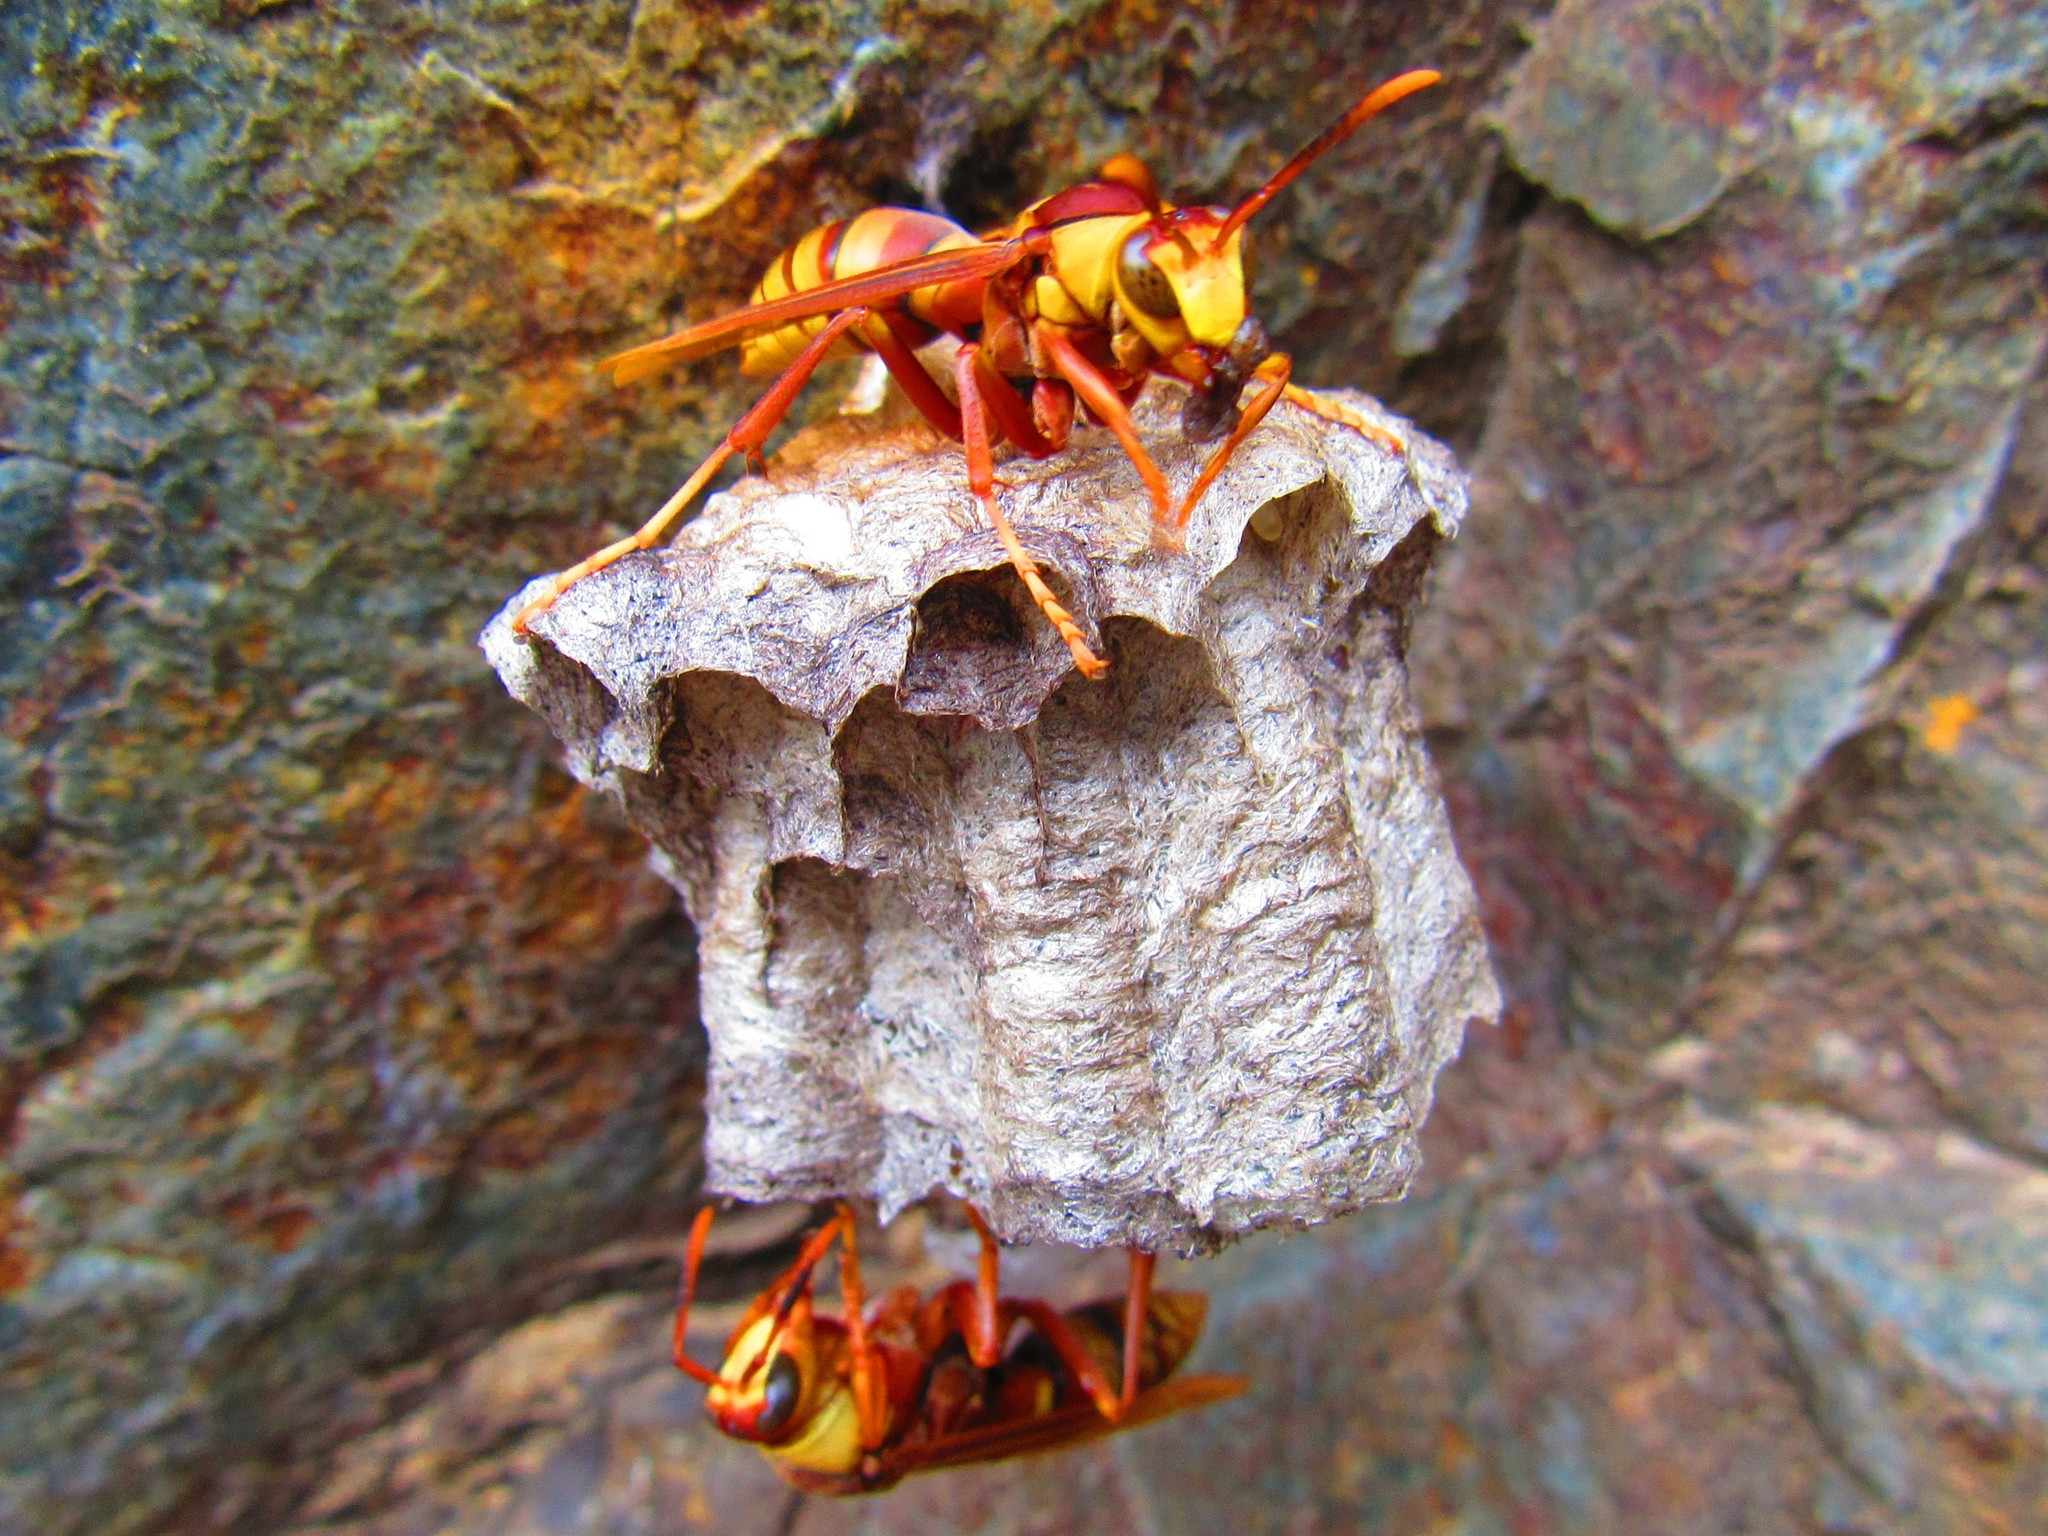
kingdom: Animalia
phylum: Arthropoda
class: Insecta
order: Hymenoptera
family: Eumenidae
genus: Polistes
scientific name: Polistes carnifex
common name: Paper wasp
